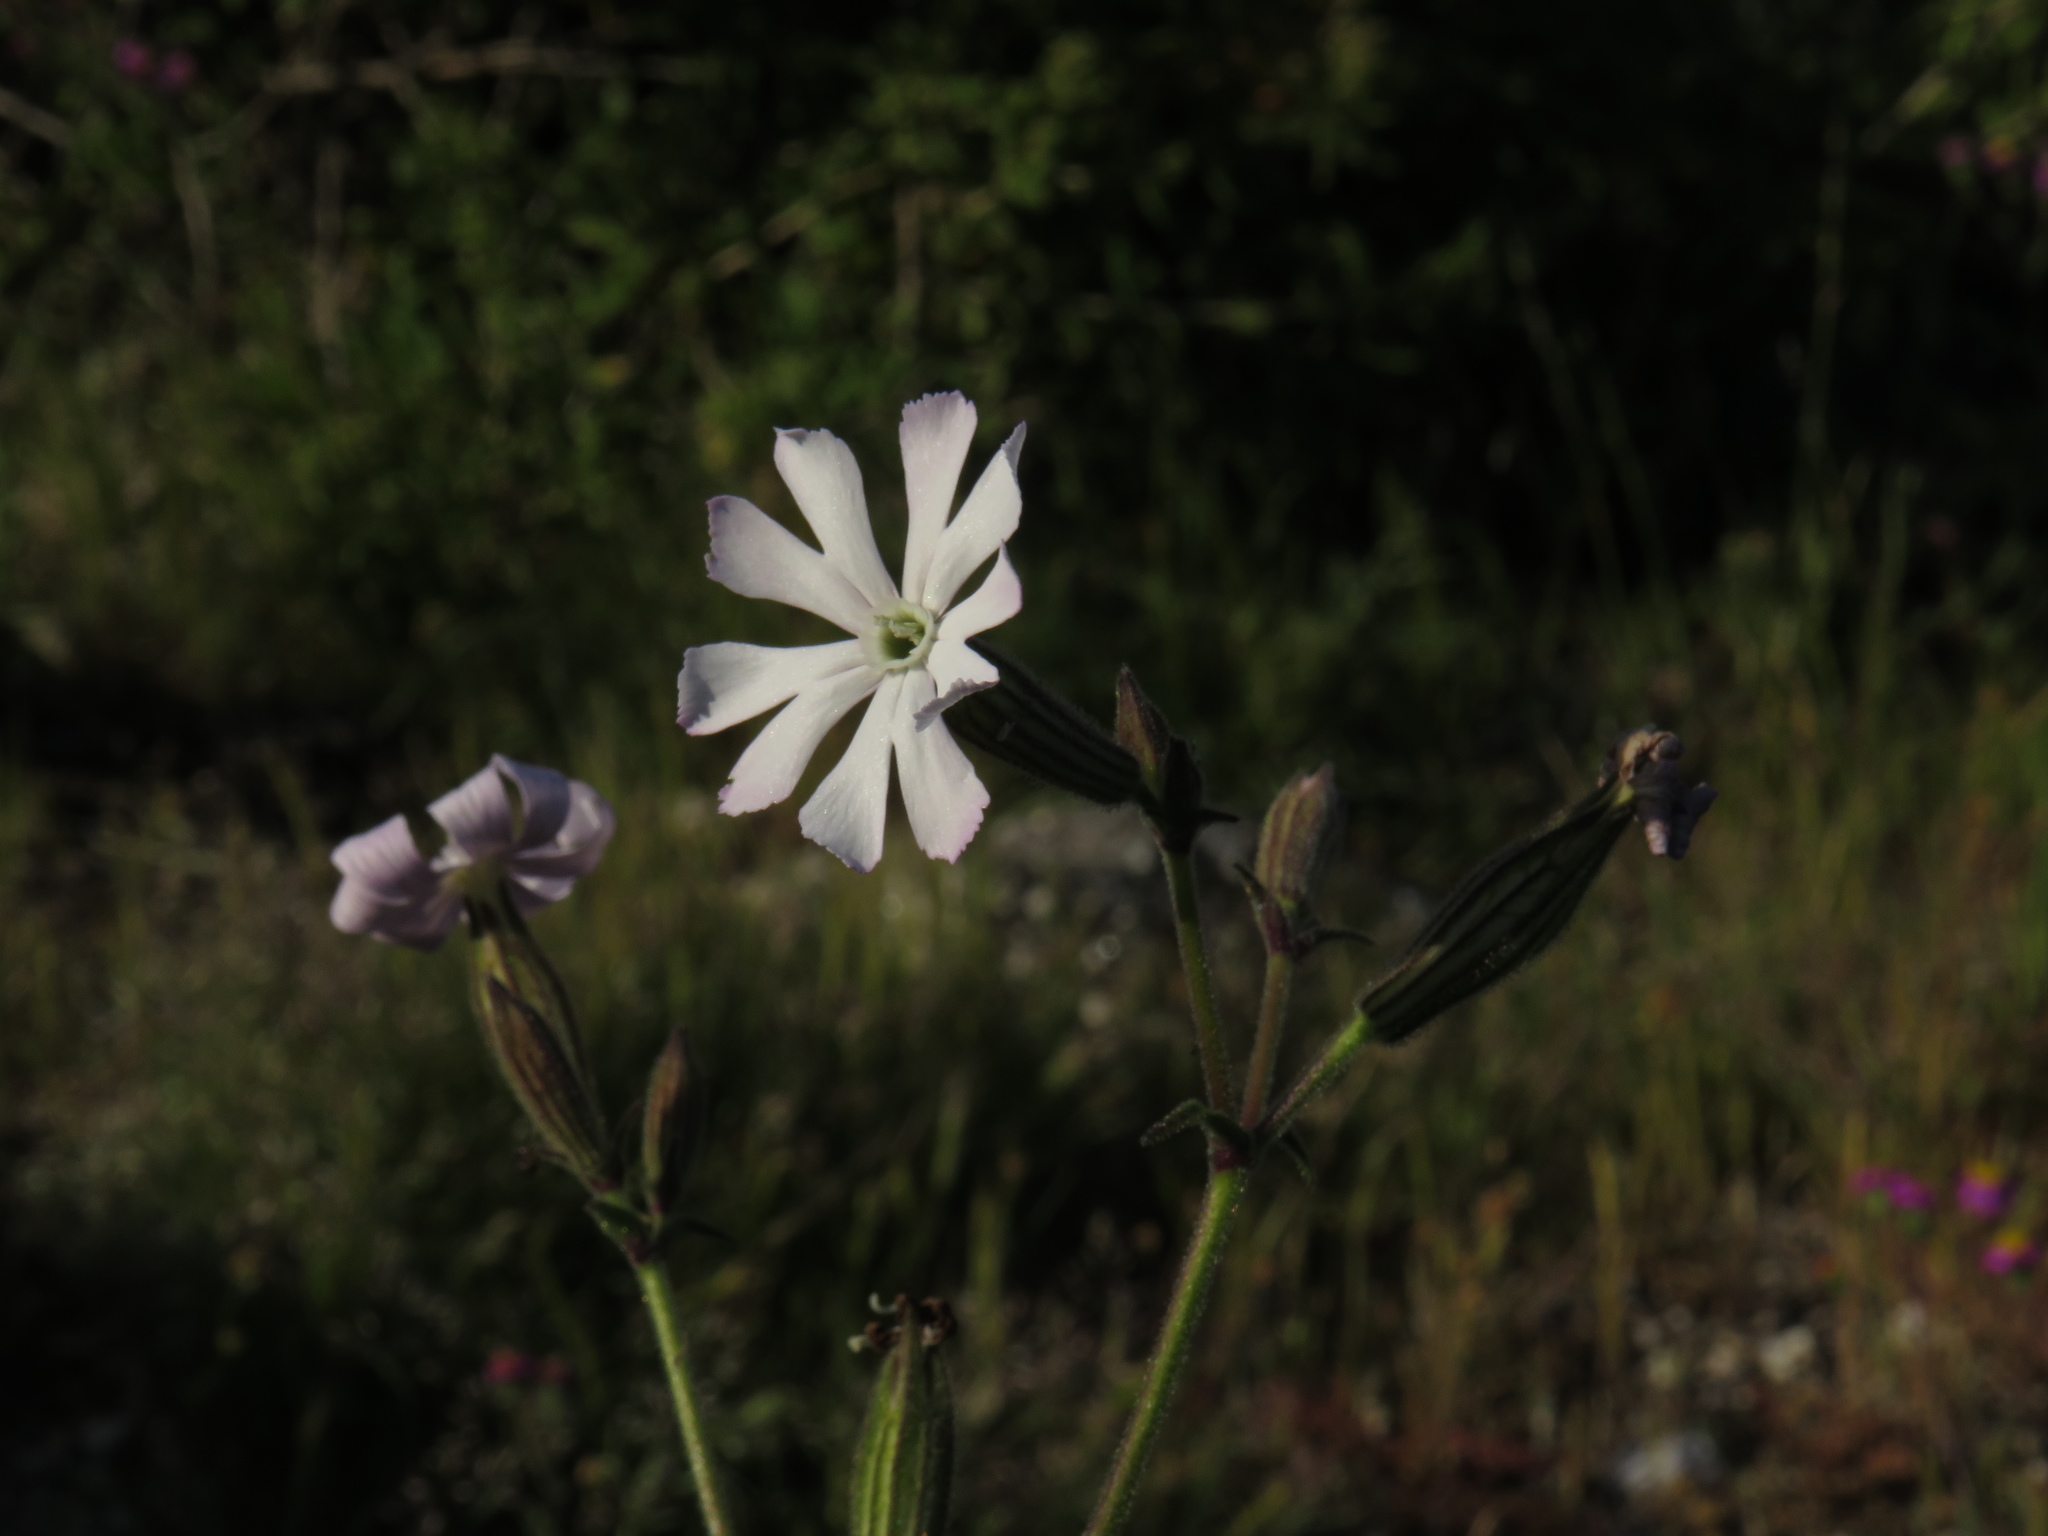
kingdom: Plantae
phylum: Tracheophyta
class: Magnoliopsida
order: Caryophyllales
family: Caryophyllaceae
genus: Silene
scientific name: Silene rigens
